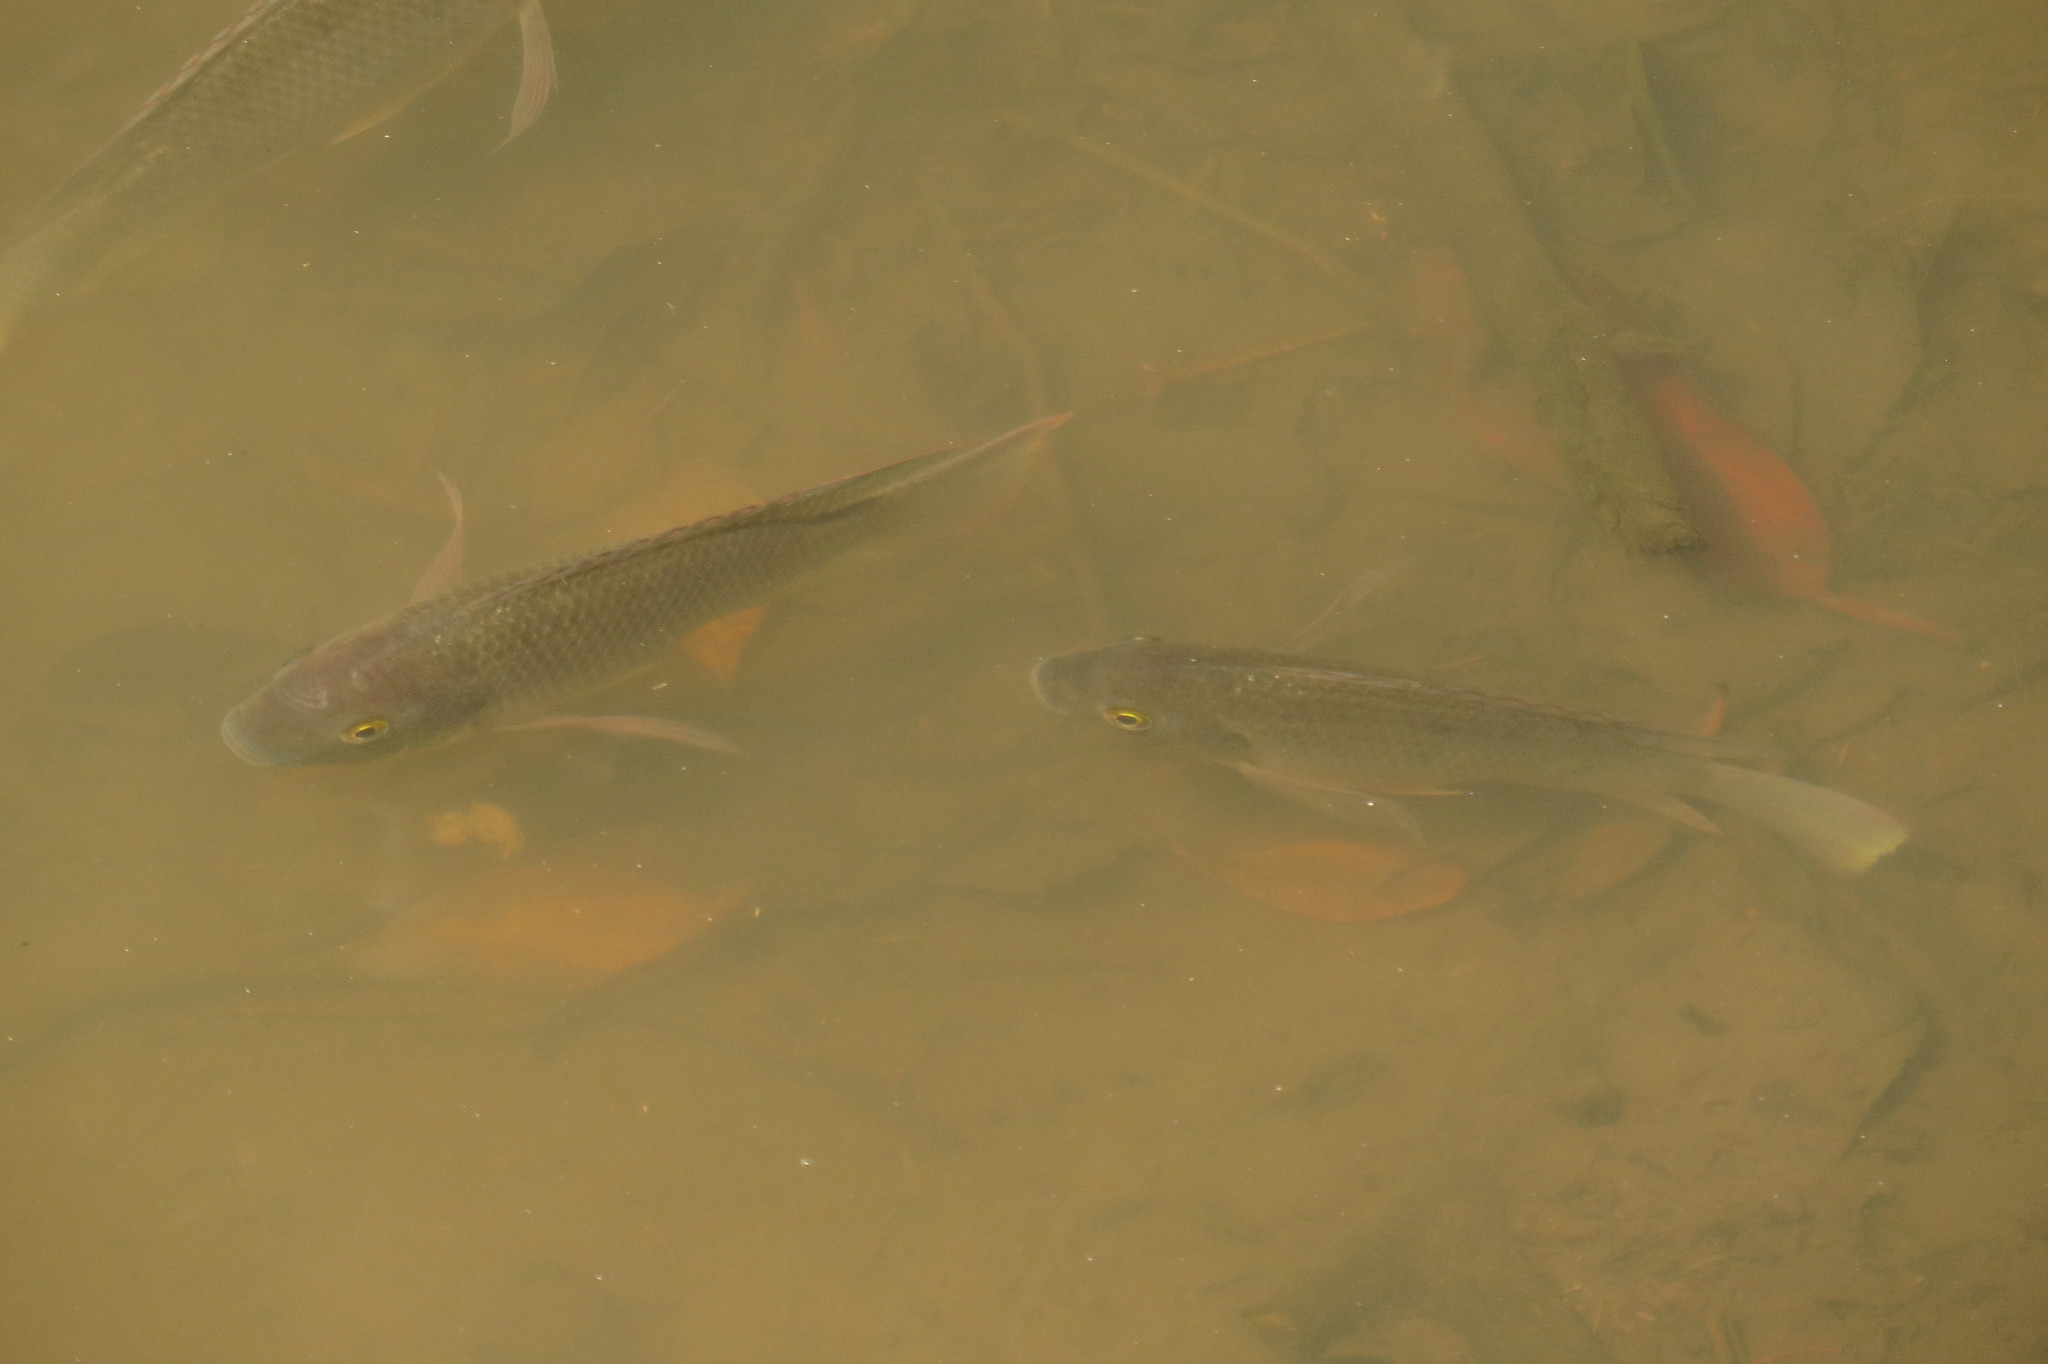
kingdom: Animalia
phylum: Chordata
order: Perciformes
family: Cichlidae
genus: Oreochromis
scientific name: Oreochromis mossambicus
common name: Mozambique tilapia
